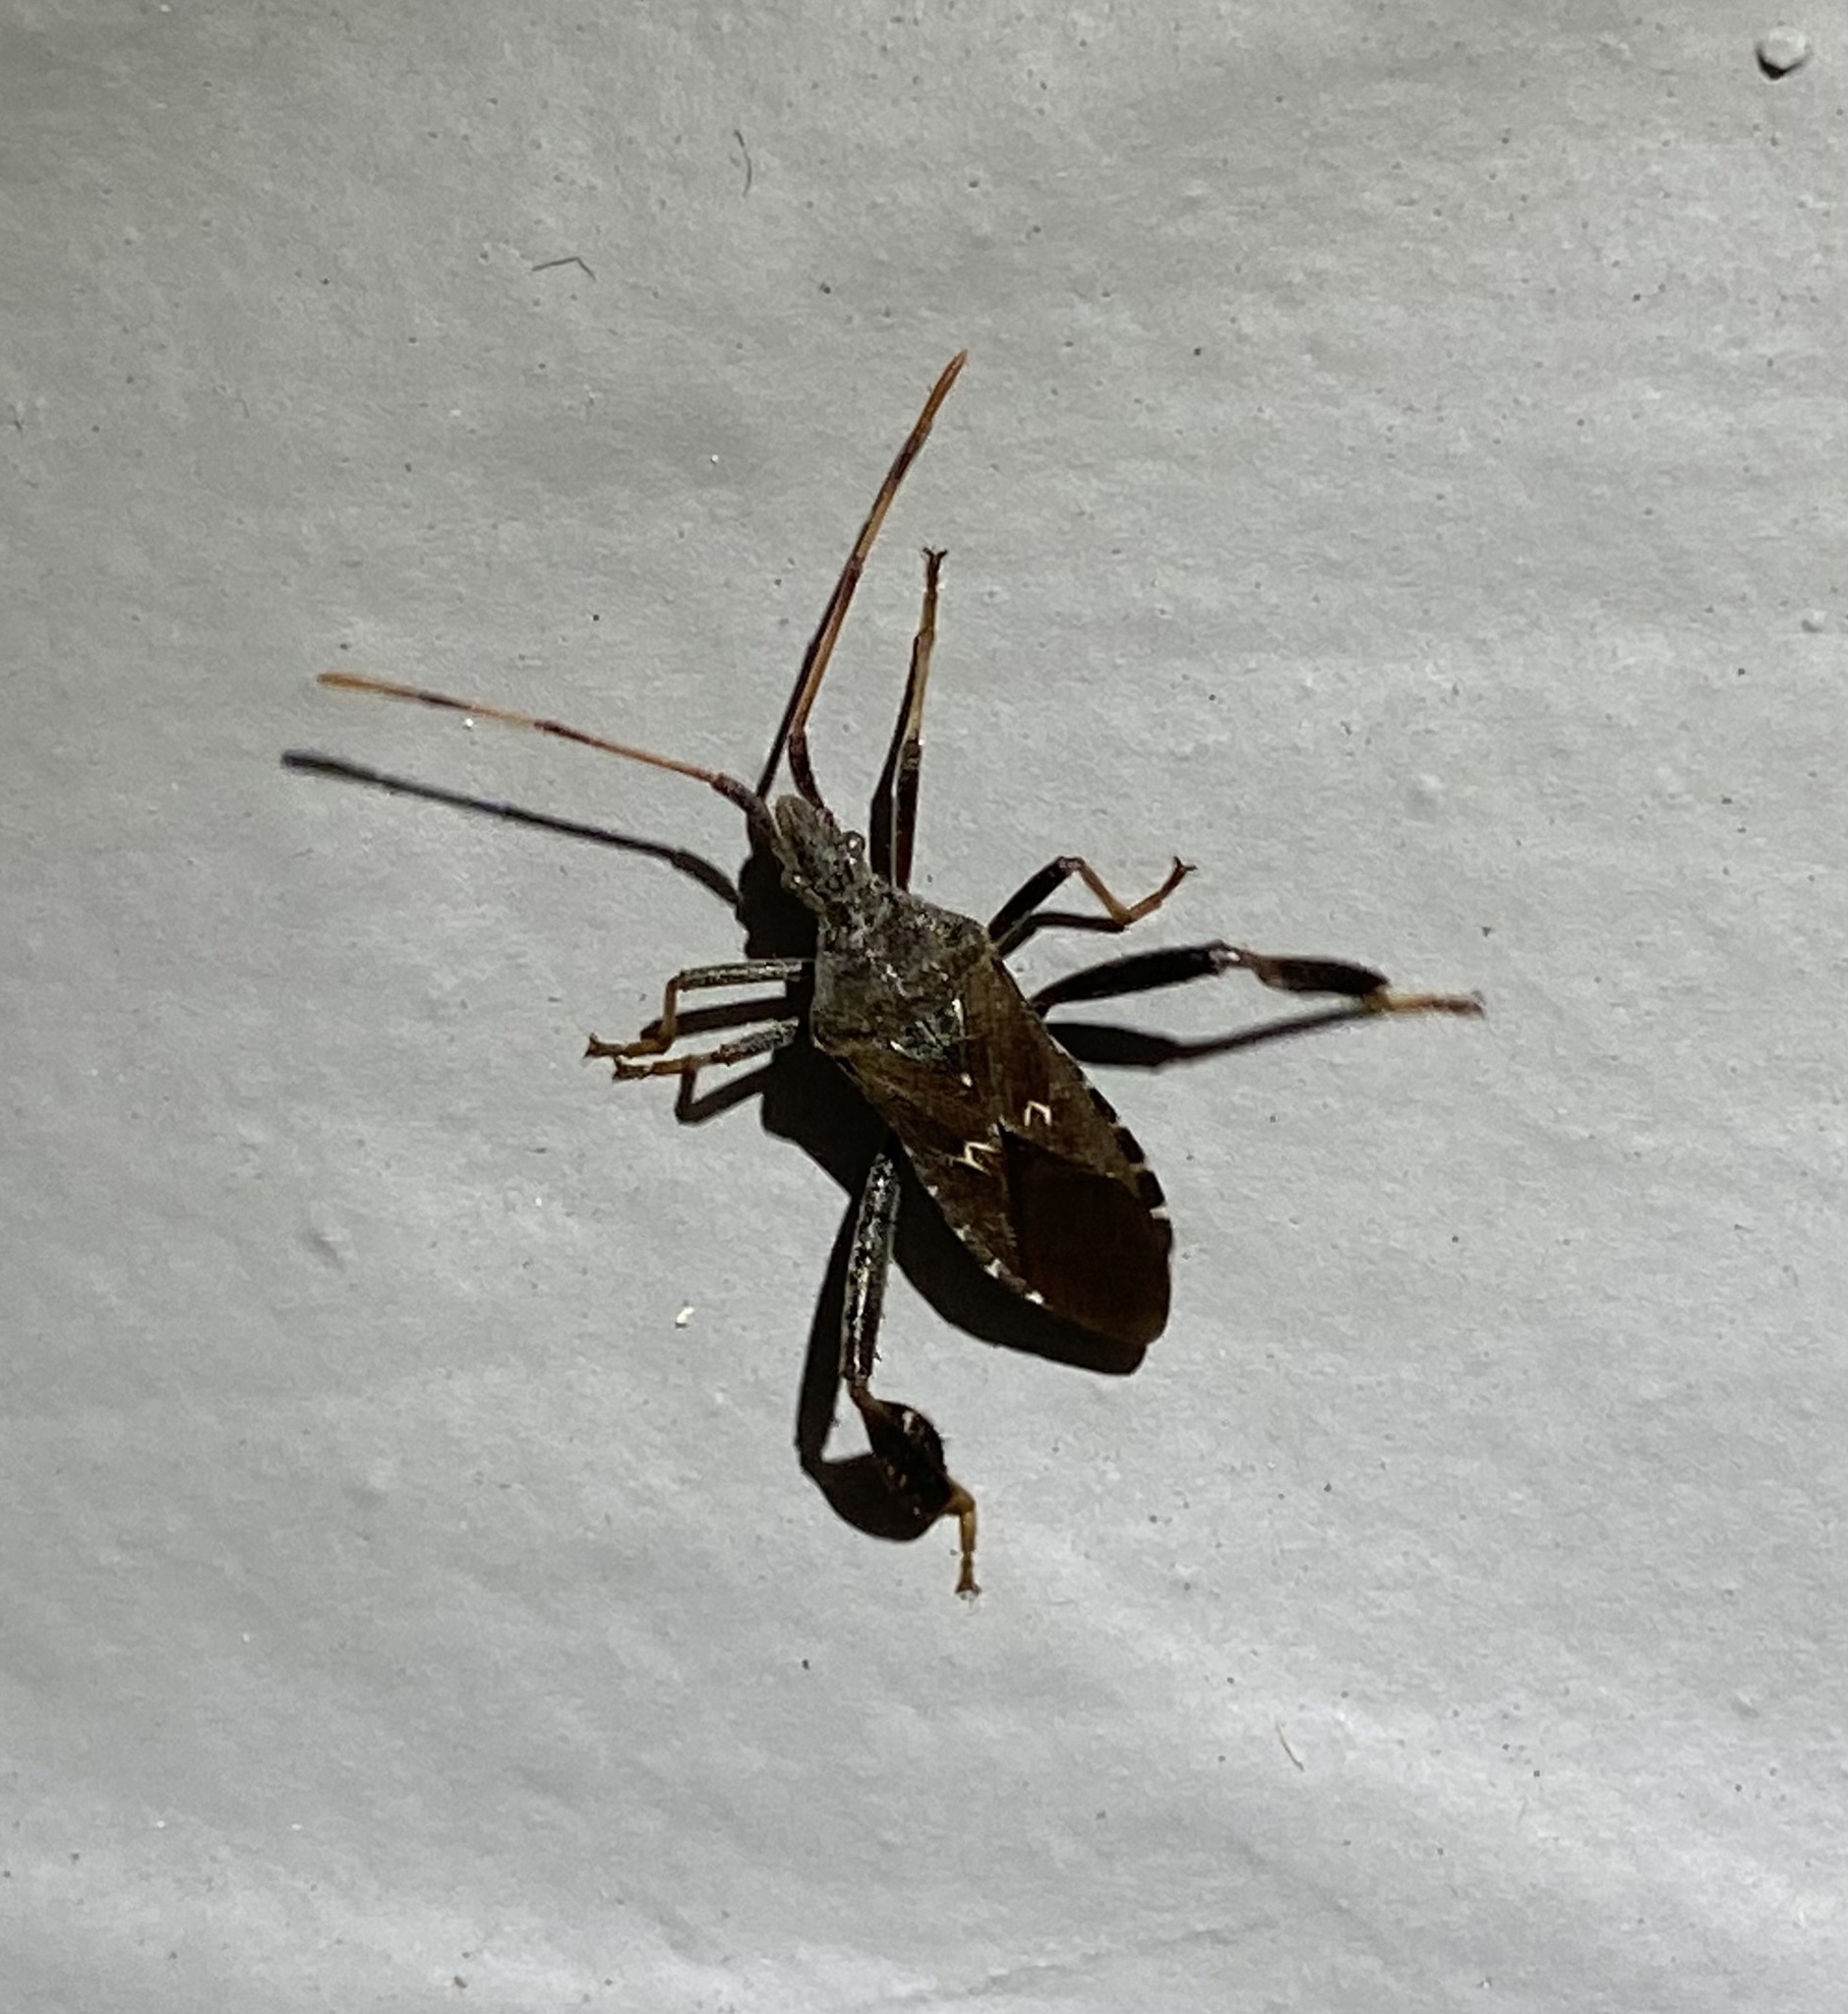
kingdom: Animalia
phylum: Arthropoda
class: Insecta
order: Hemiptera
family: Coreidae
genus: Leptoglossus
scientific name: Leptoglossus corculus
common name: Southern pine seed bug
